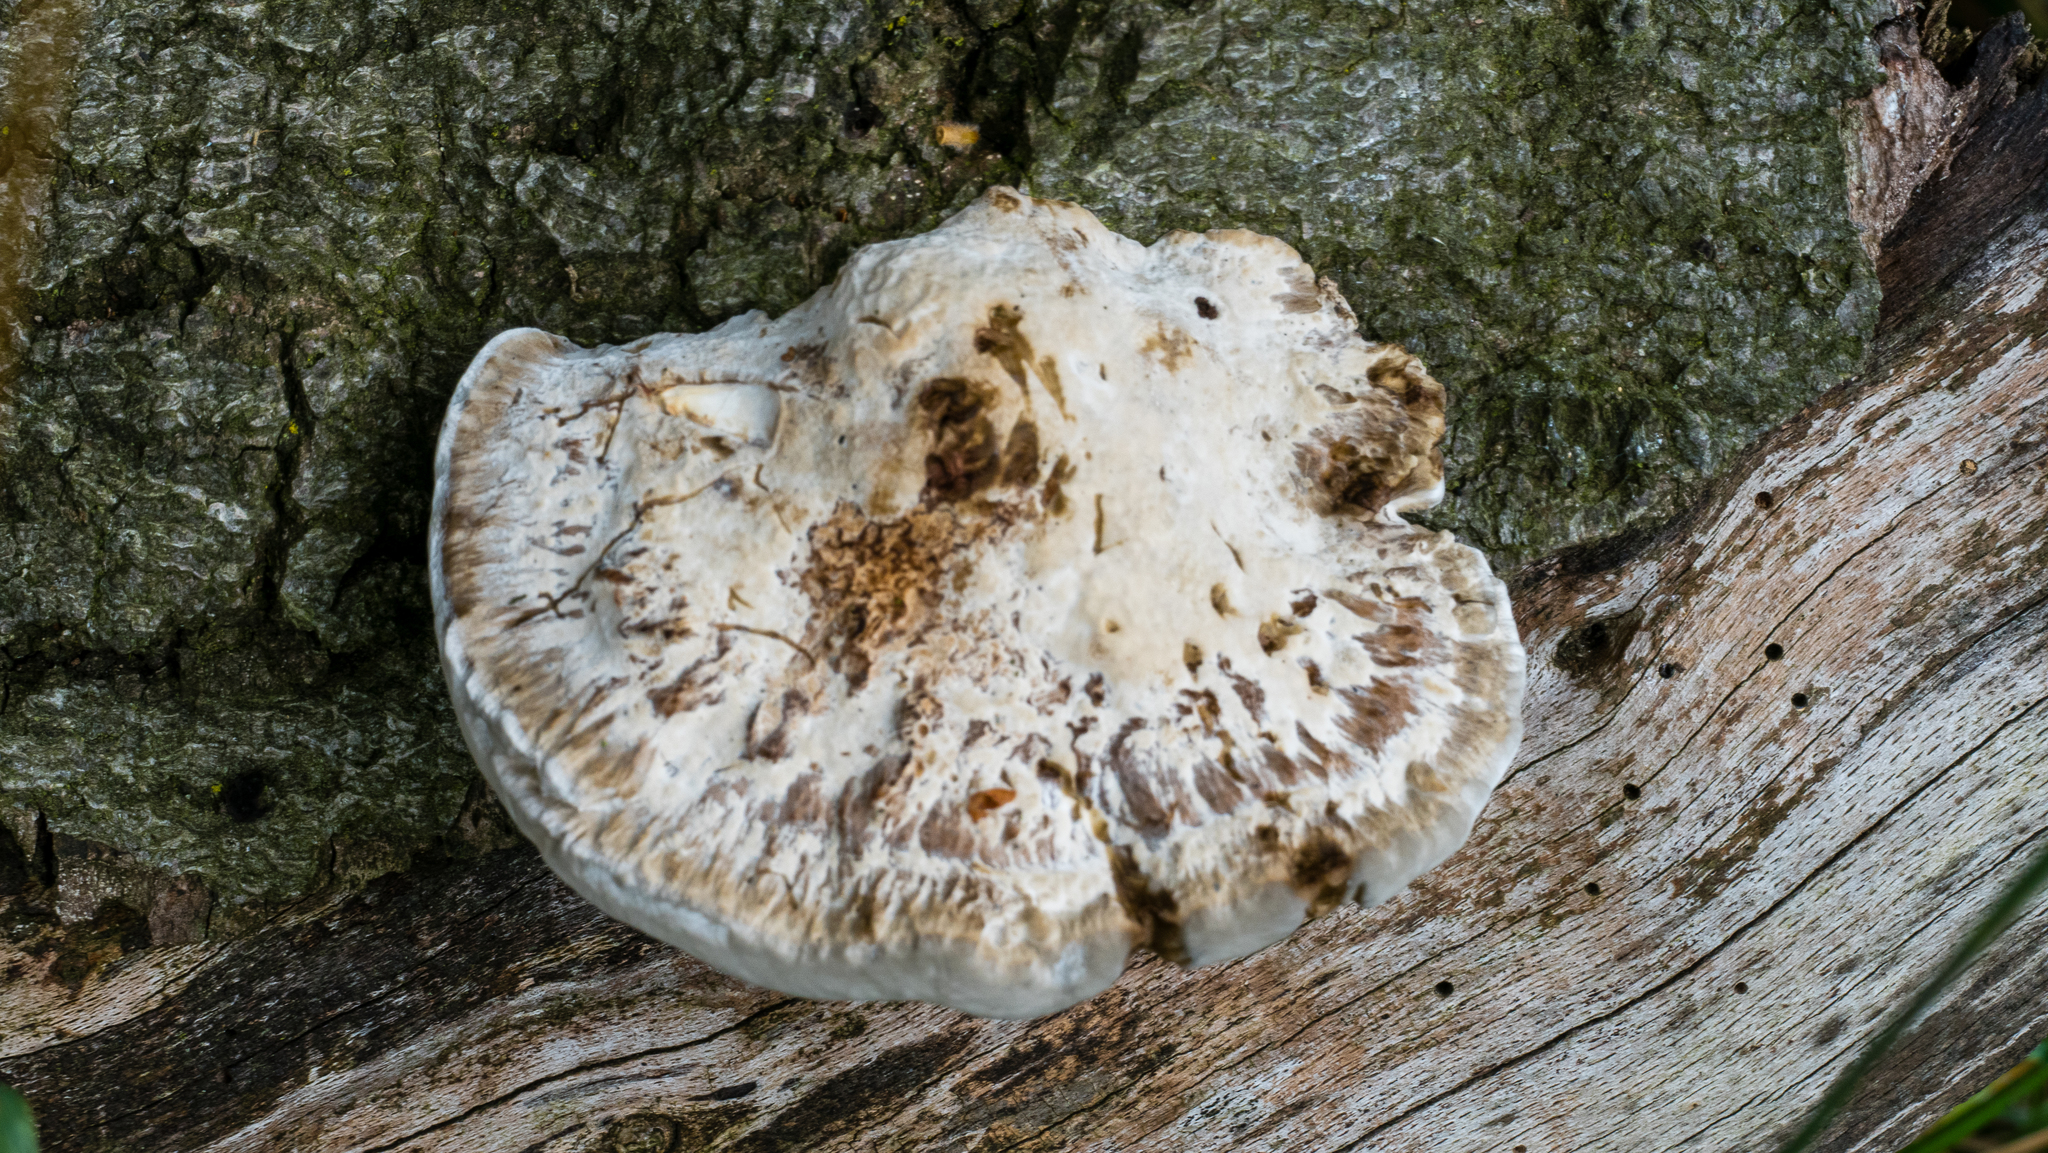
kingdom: Fungi
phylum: Basidiomycota
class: Agaricomycetes
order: Polyporales
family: Fomitopsidaceae
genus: Fomitopsis
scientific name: Fomitopsis
